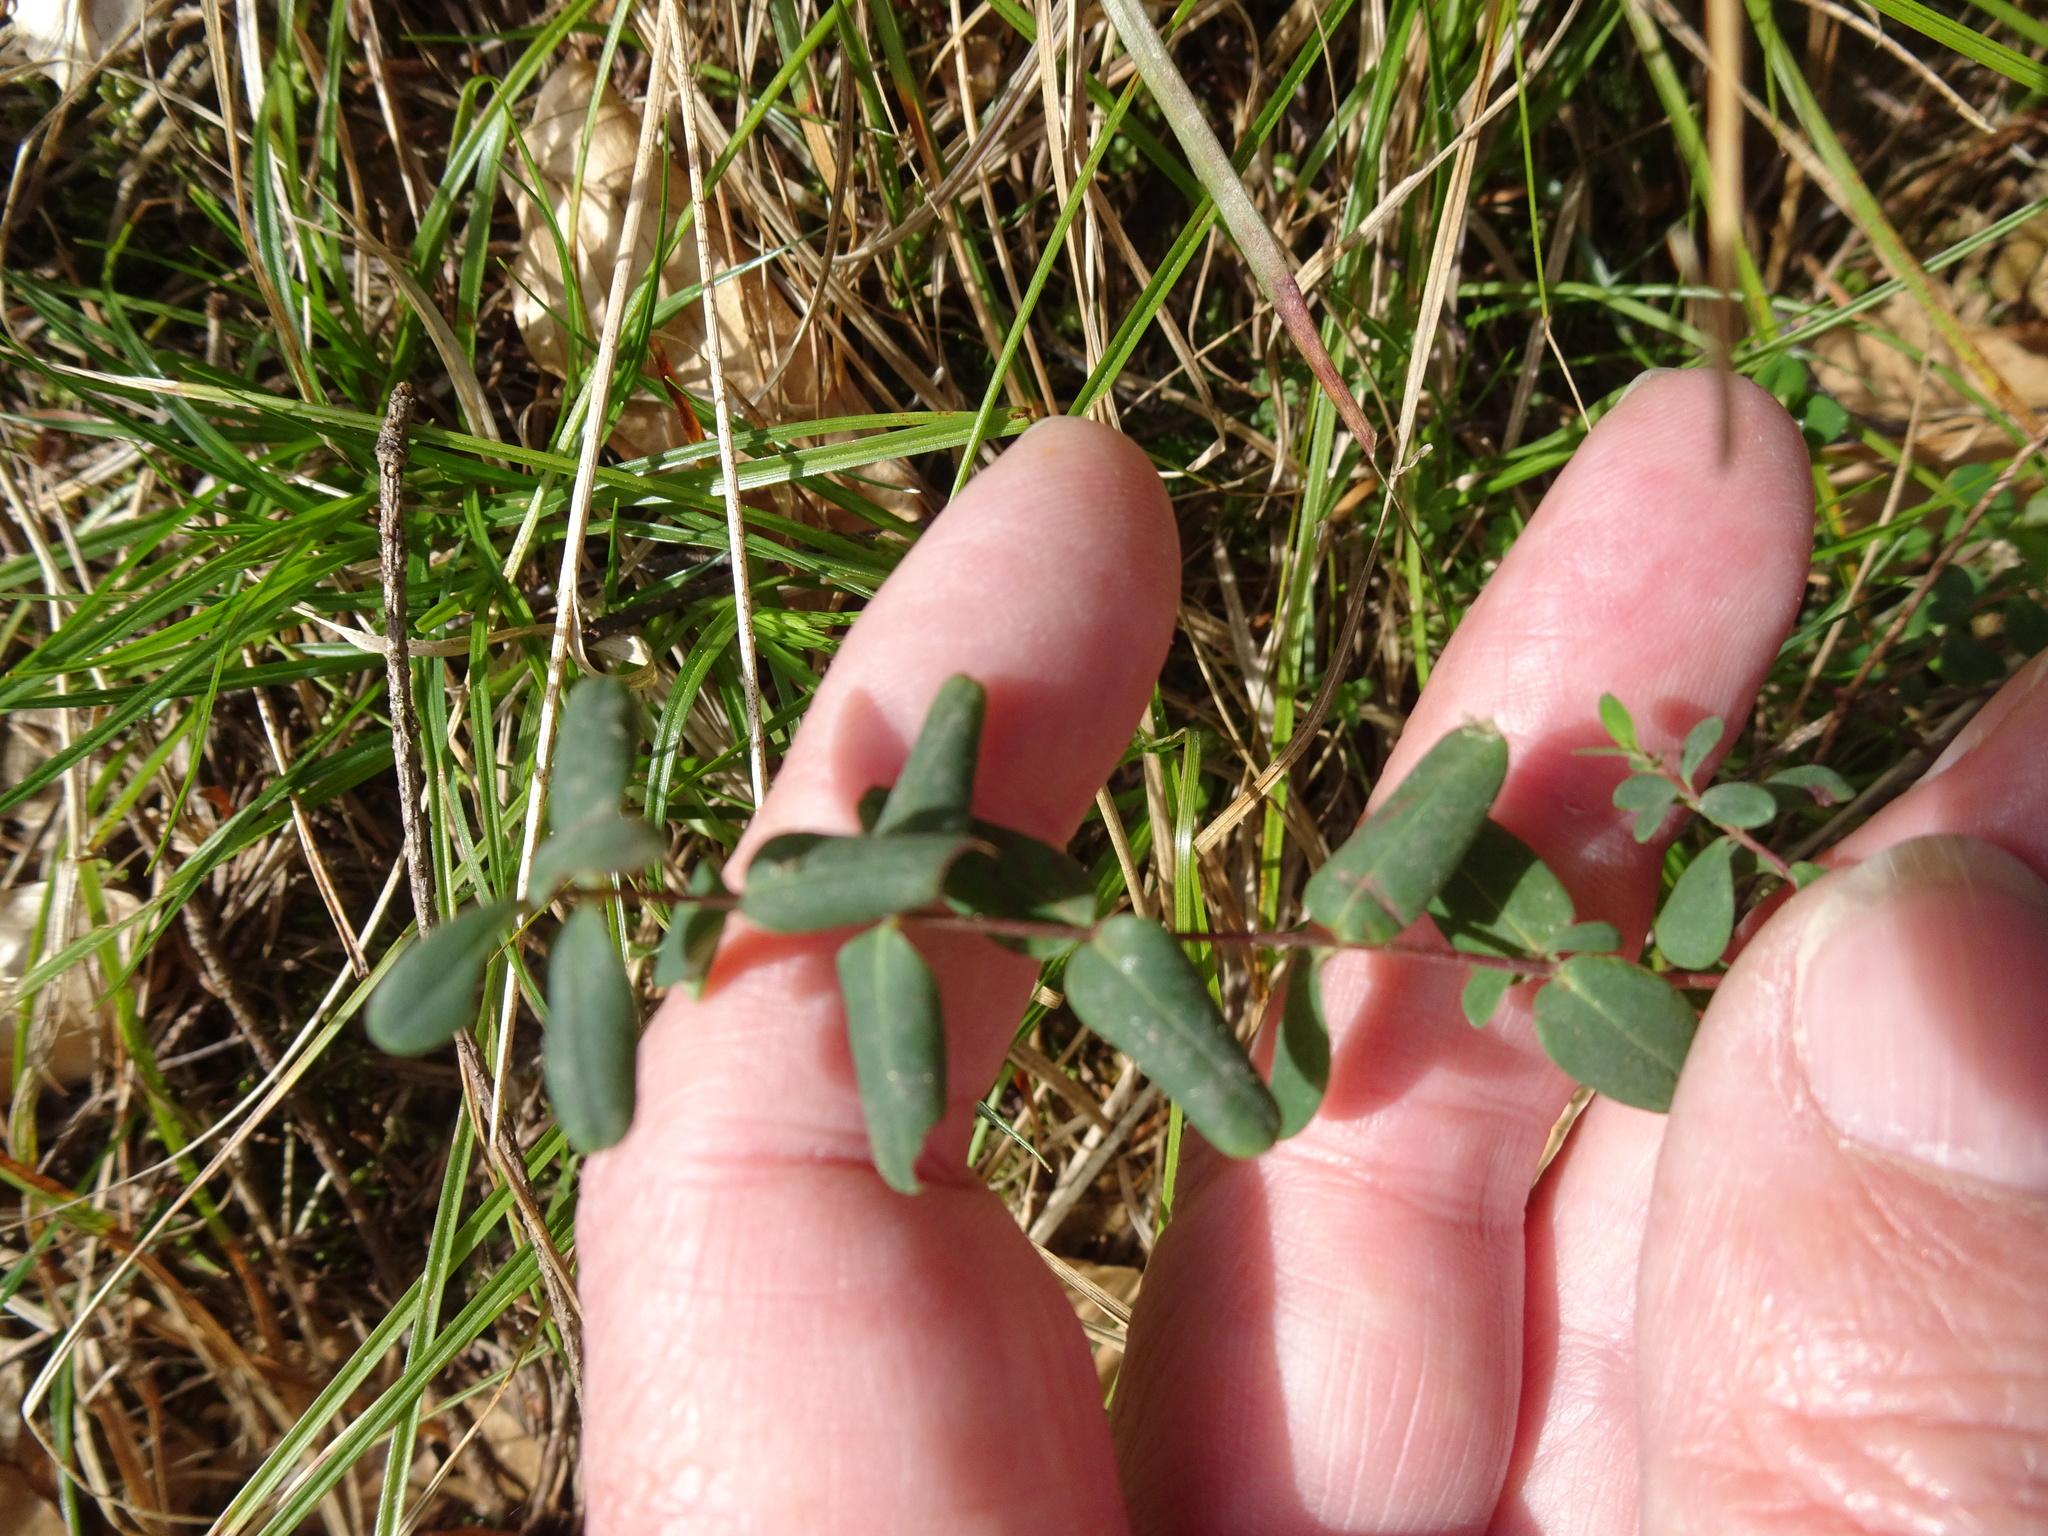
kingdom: Plantae
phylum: Tracheophyta
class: Magnoliopsida
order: Malpighiales
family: Hypericaceae
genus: Hypericum
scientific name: Hypericum pulchrum
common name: Slender st. john's-wort
